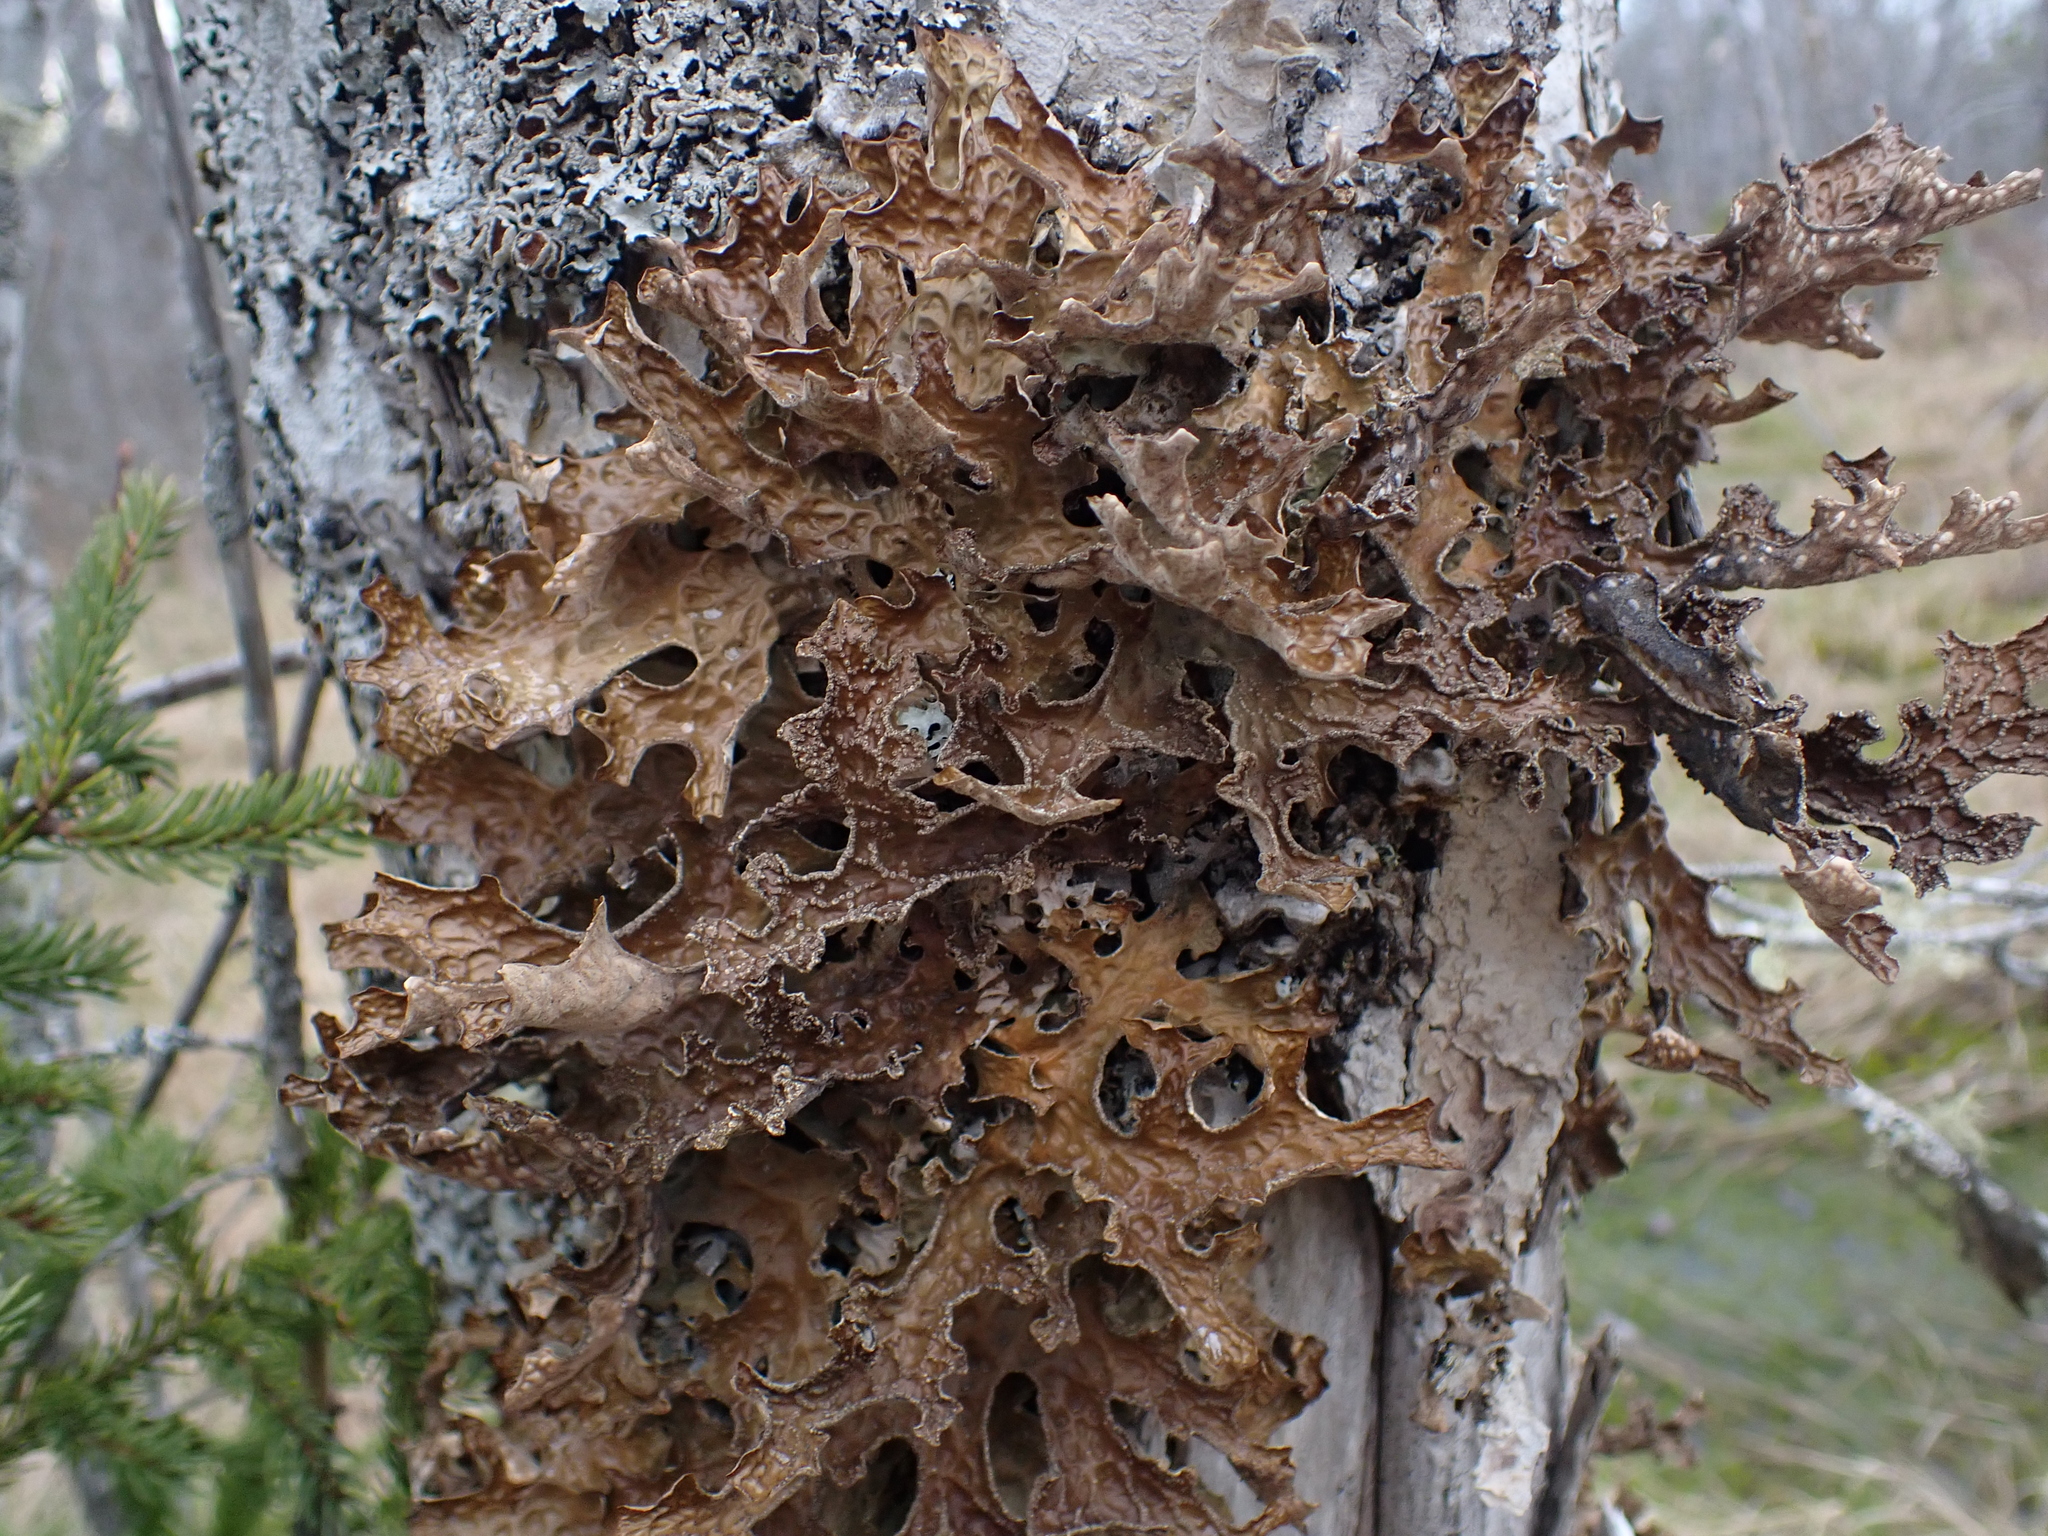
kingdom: Fungi
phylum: Ascomycota
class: Lecanoromycetes
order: Peltigerales
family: Lobariaceae
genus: Lobaria
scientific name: Lobaria pulmonaria
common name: Lungwort
